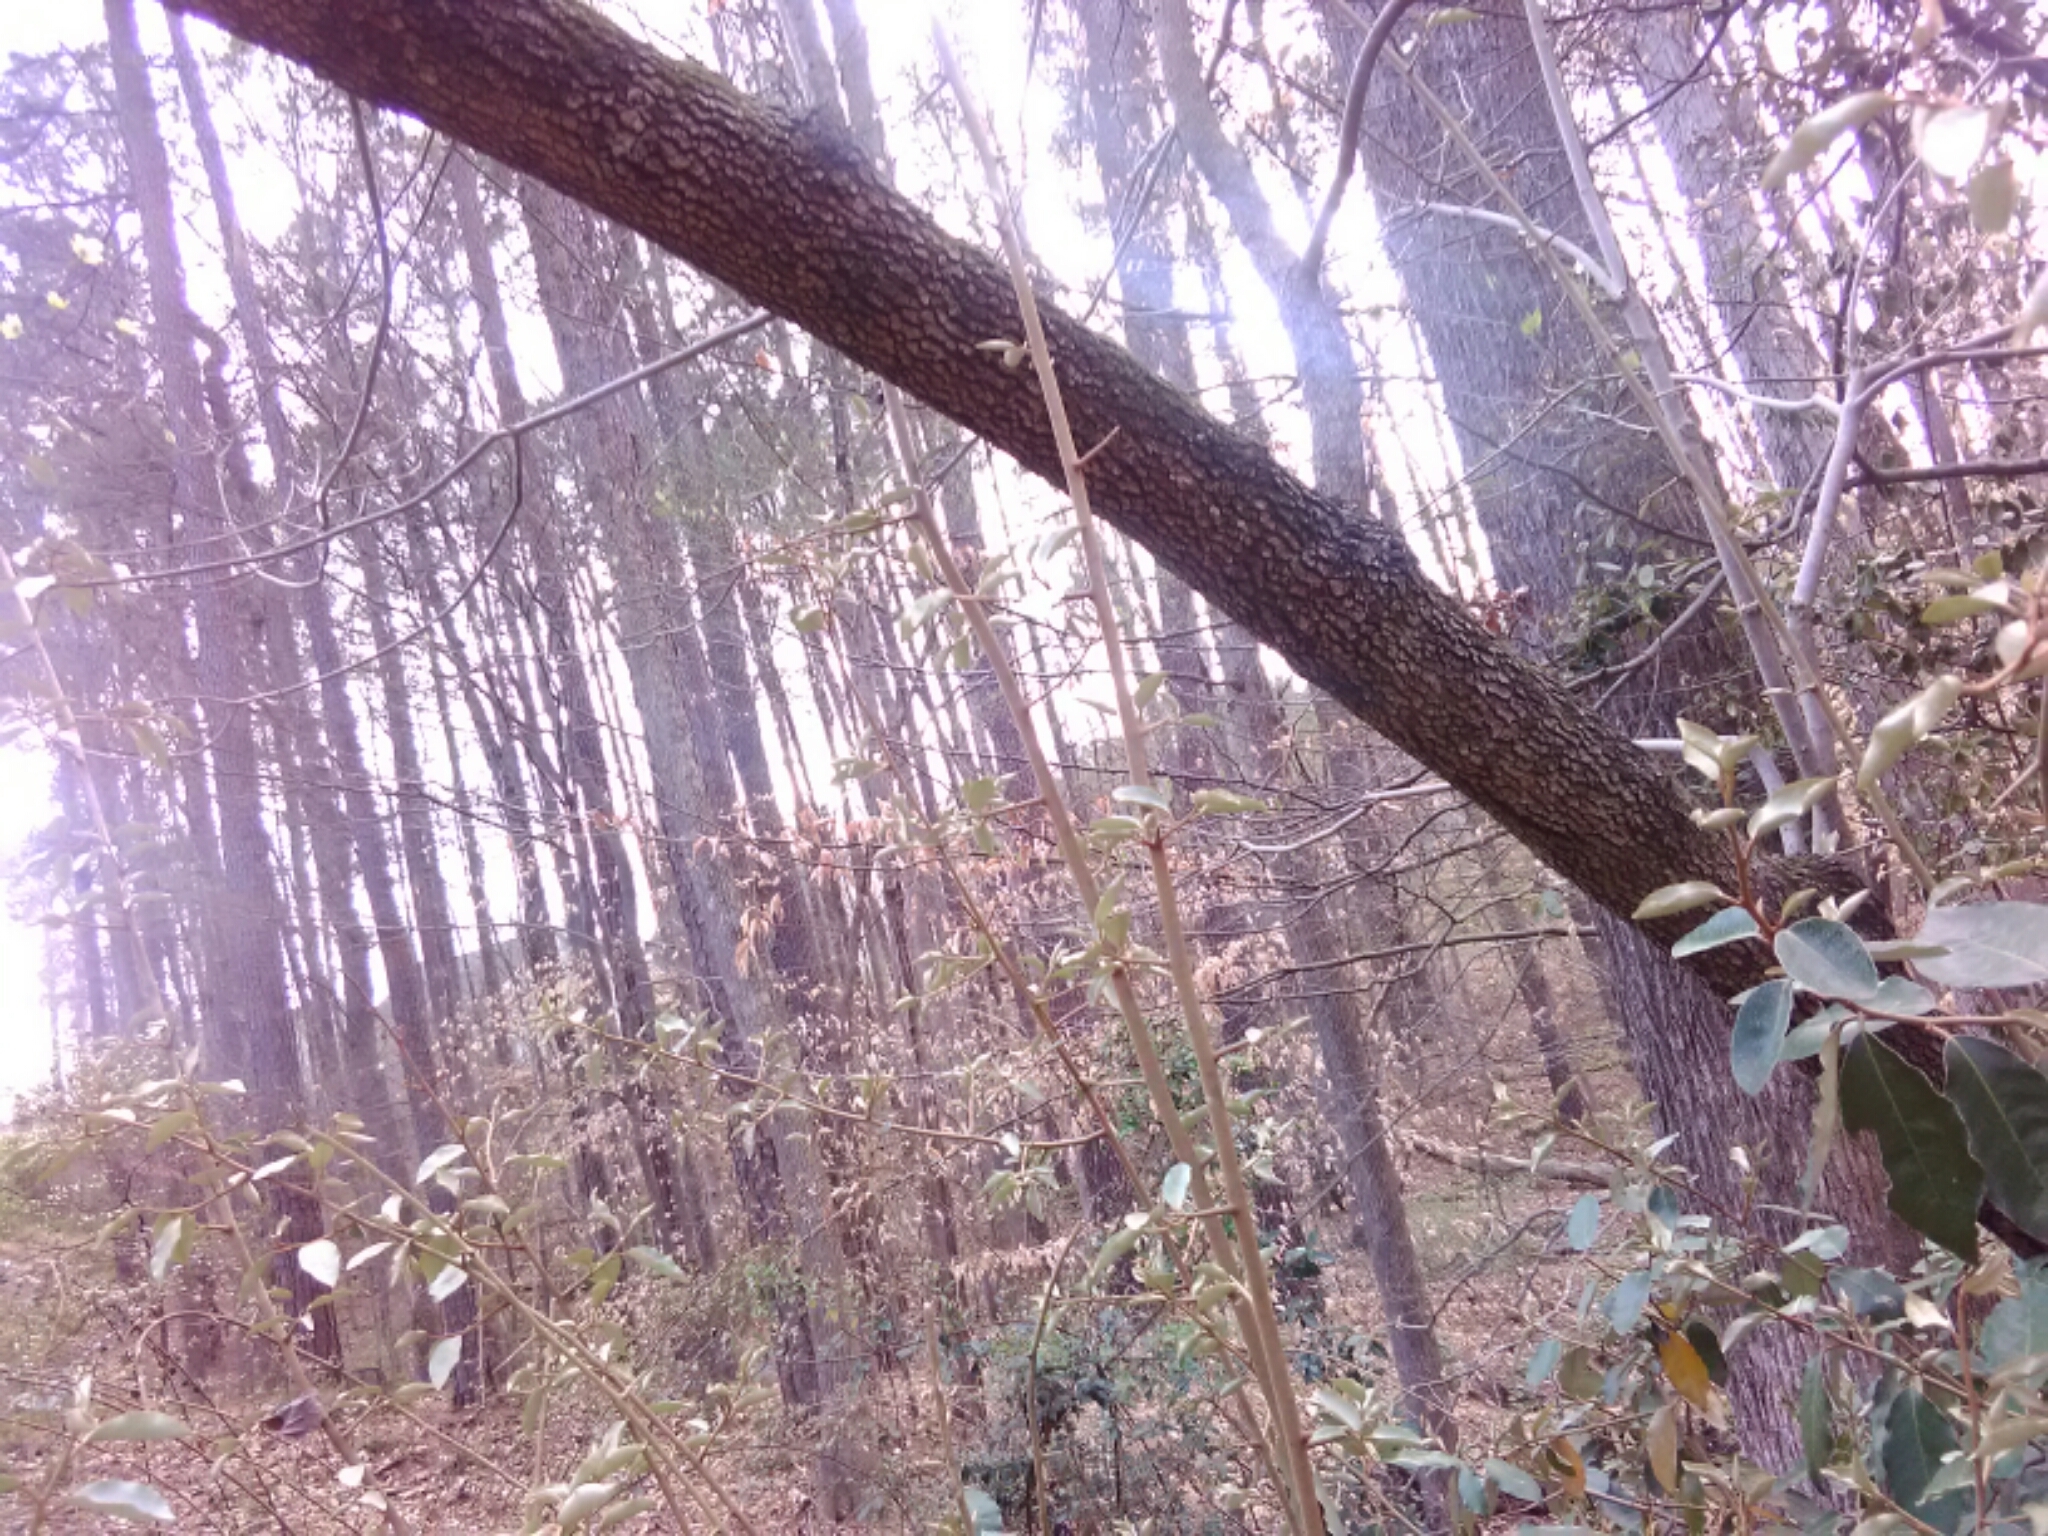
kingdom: Plantae
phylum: Tracheophyta
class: Magnoliopsida
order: Cornales
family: Cornaceae
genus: Cornus
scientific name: Cornus florida
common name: Flowering dogwood
